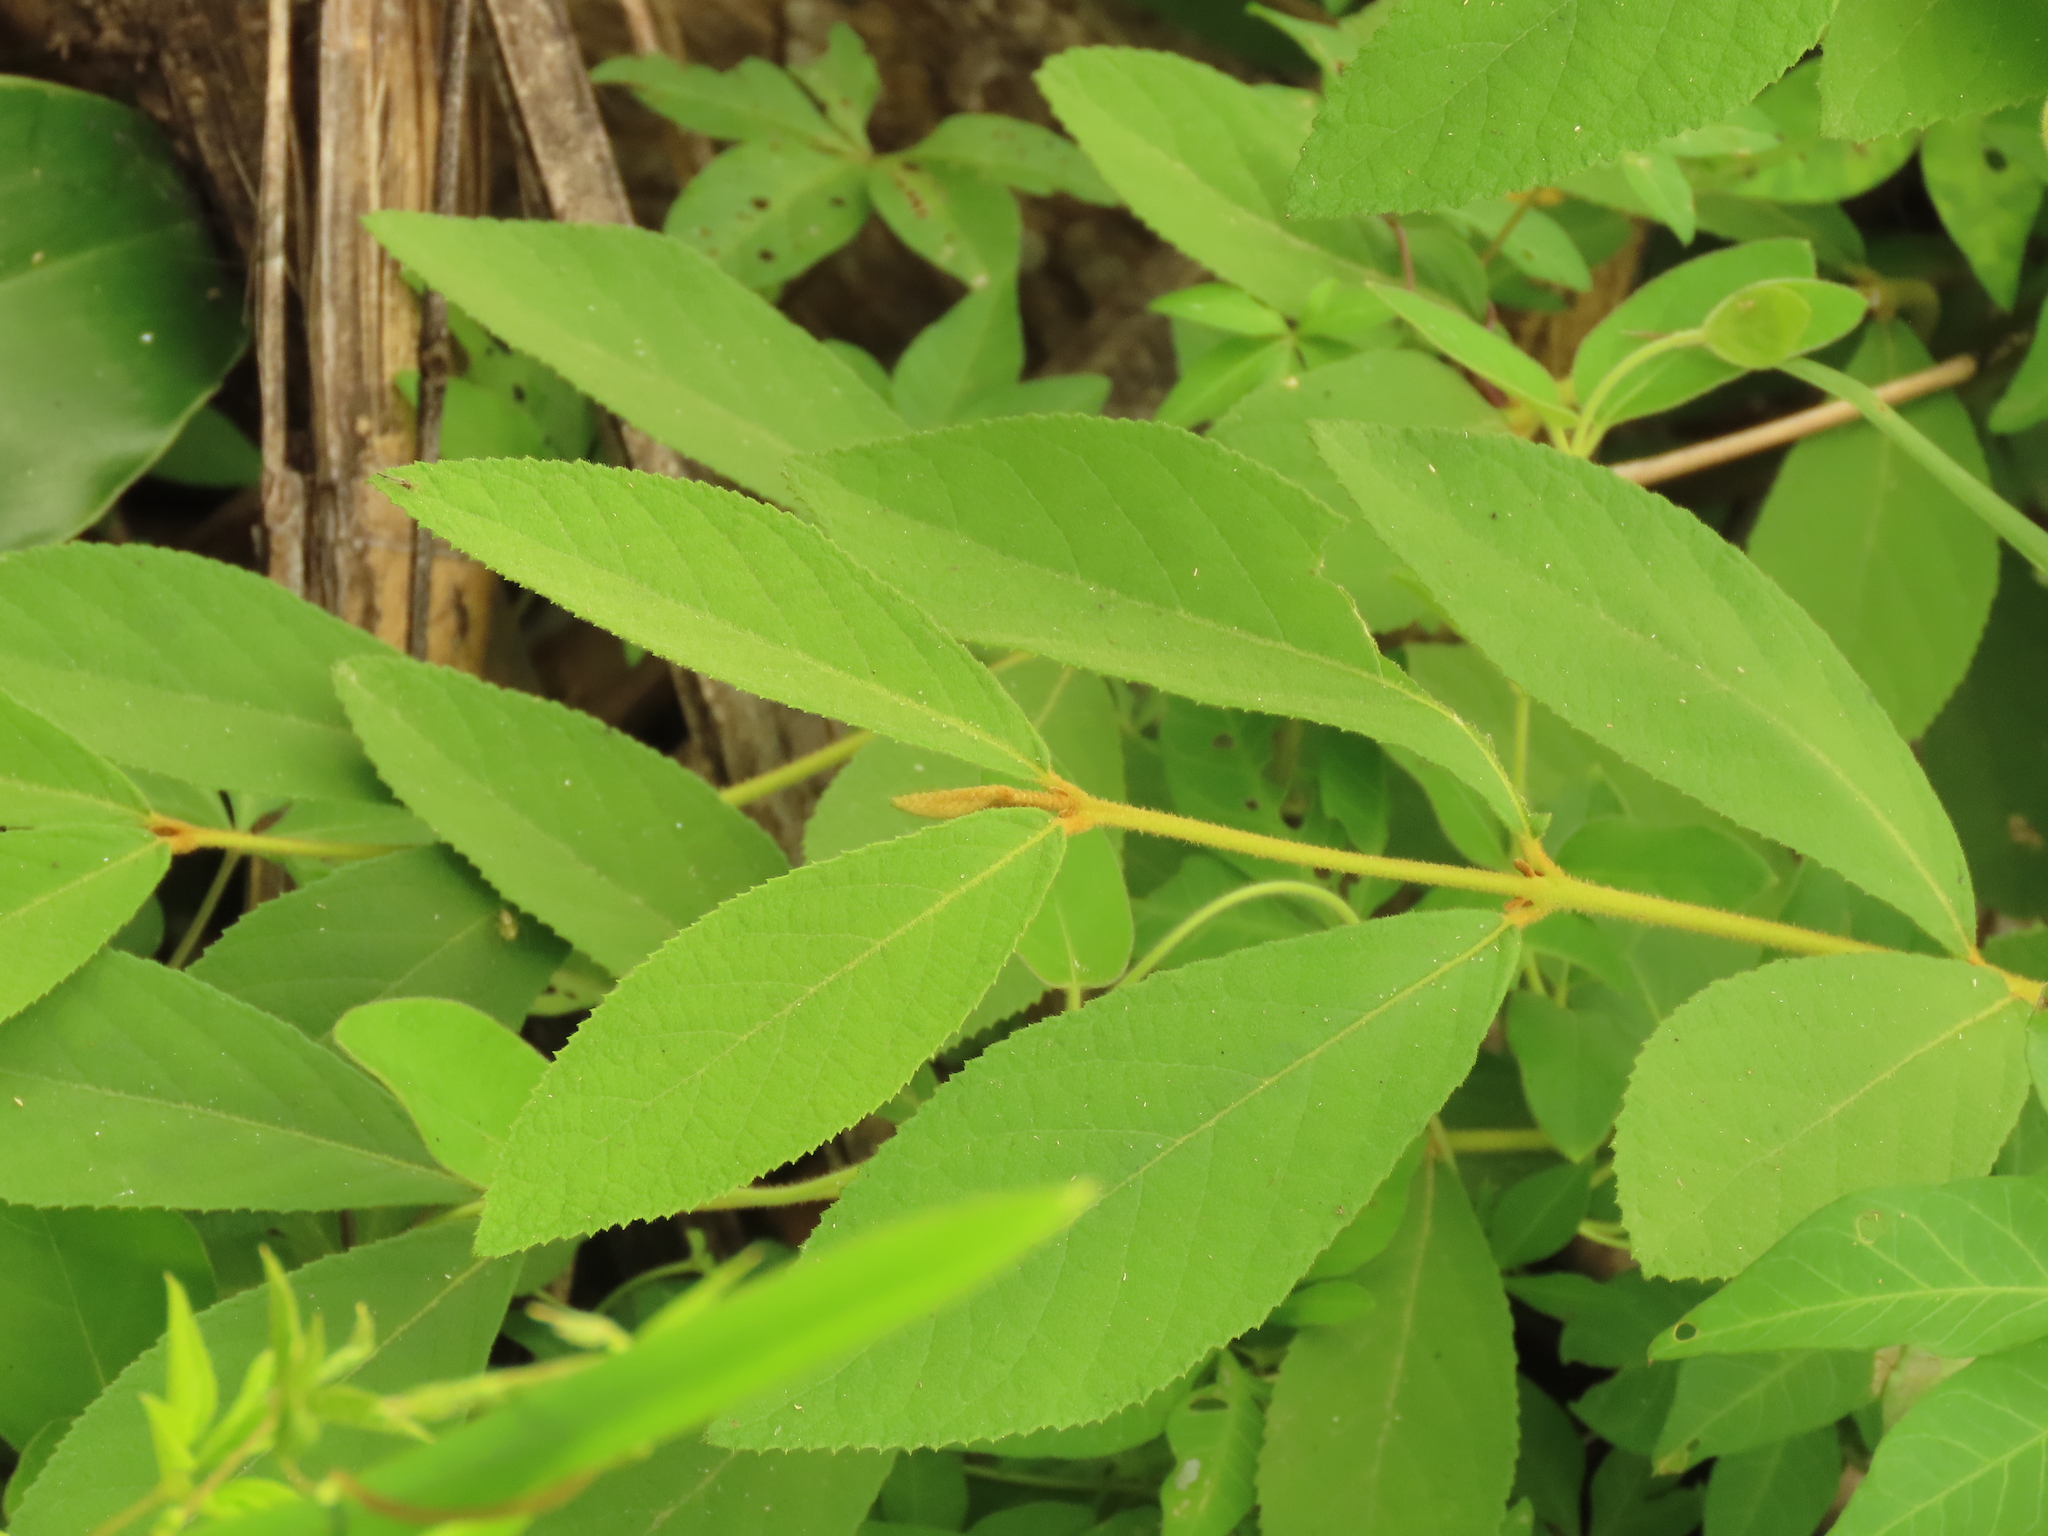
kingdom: Plantae
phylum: Tracheophyta
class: Magnoliopsida
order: Lamiales
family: Lamiaceae
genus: Callicarpa
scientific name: Callicarpa pedunculata
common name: Velvetleaf
